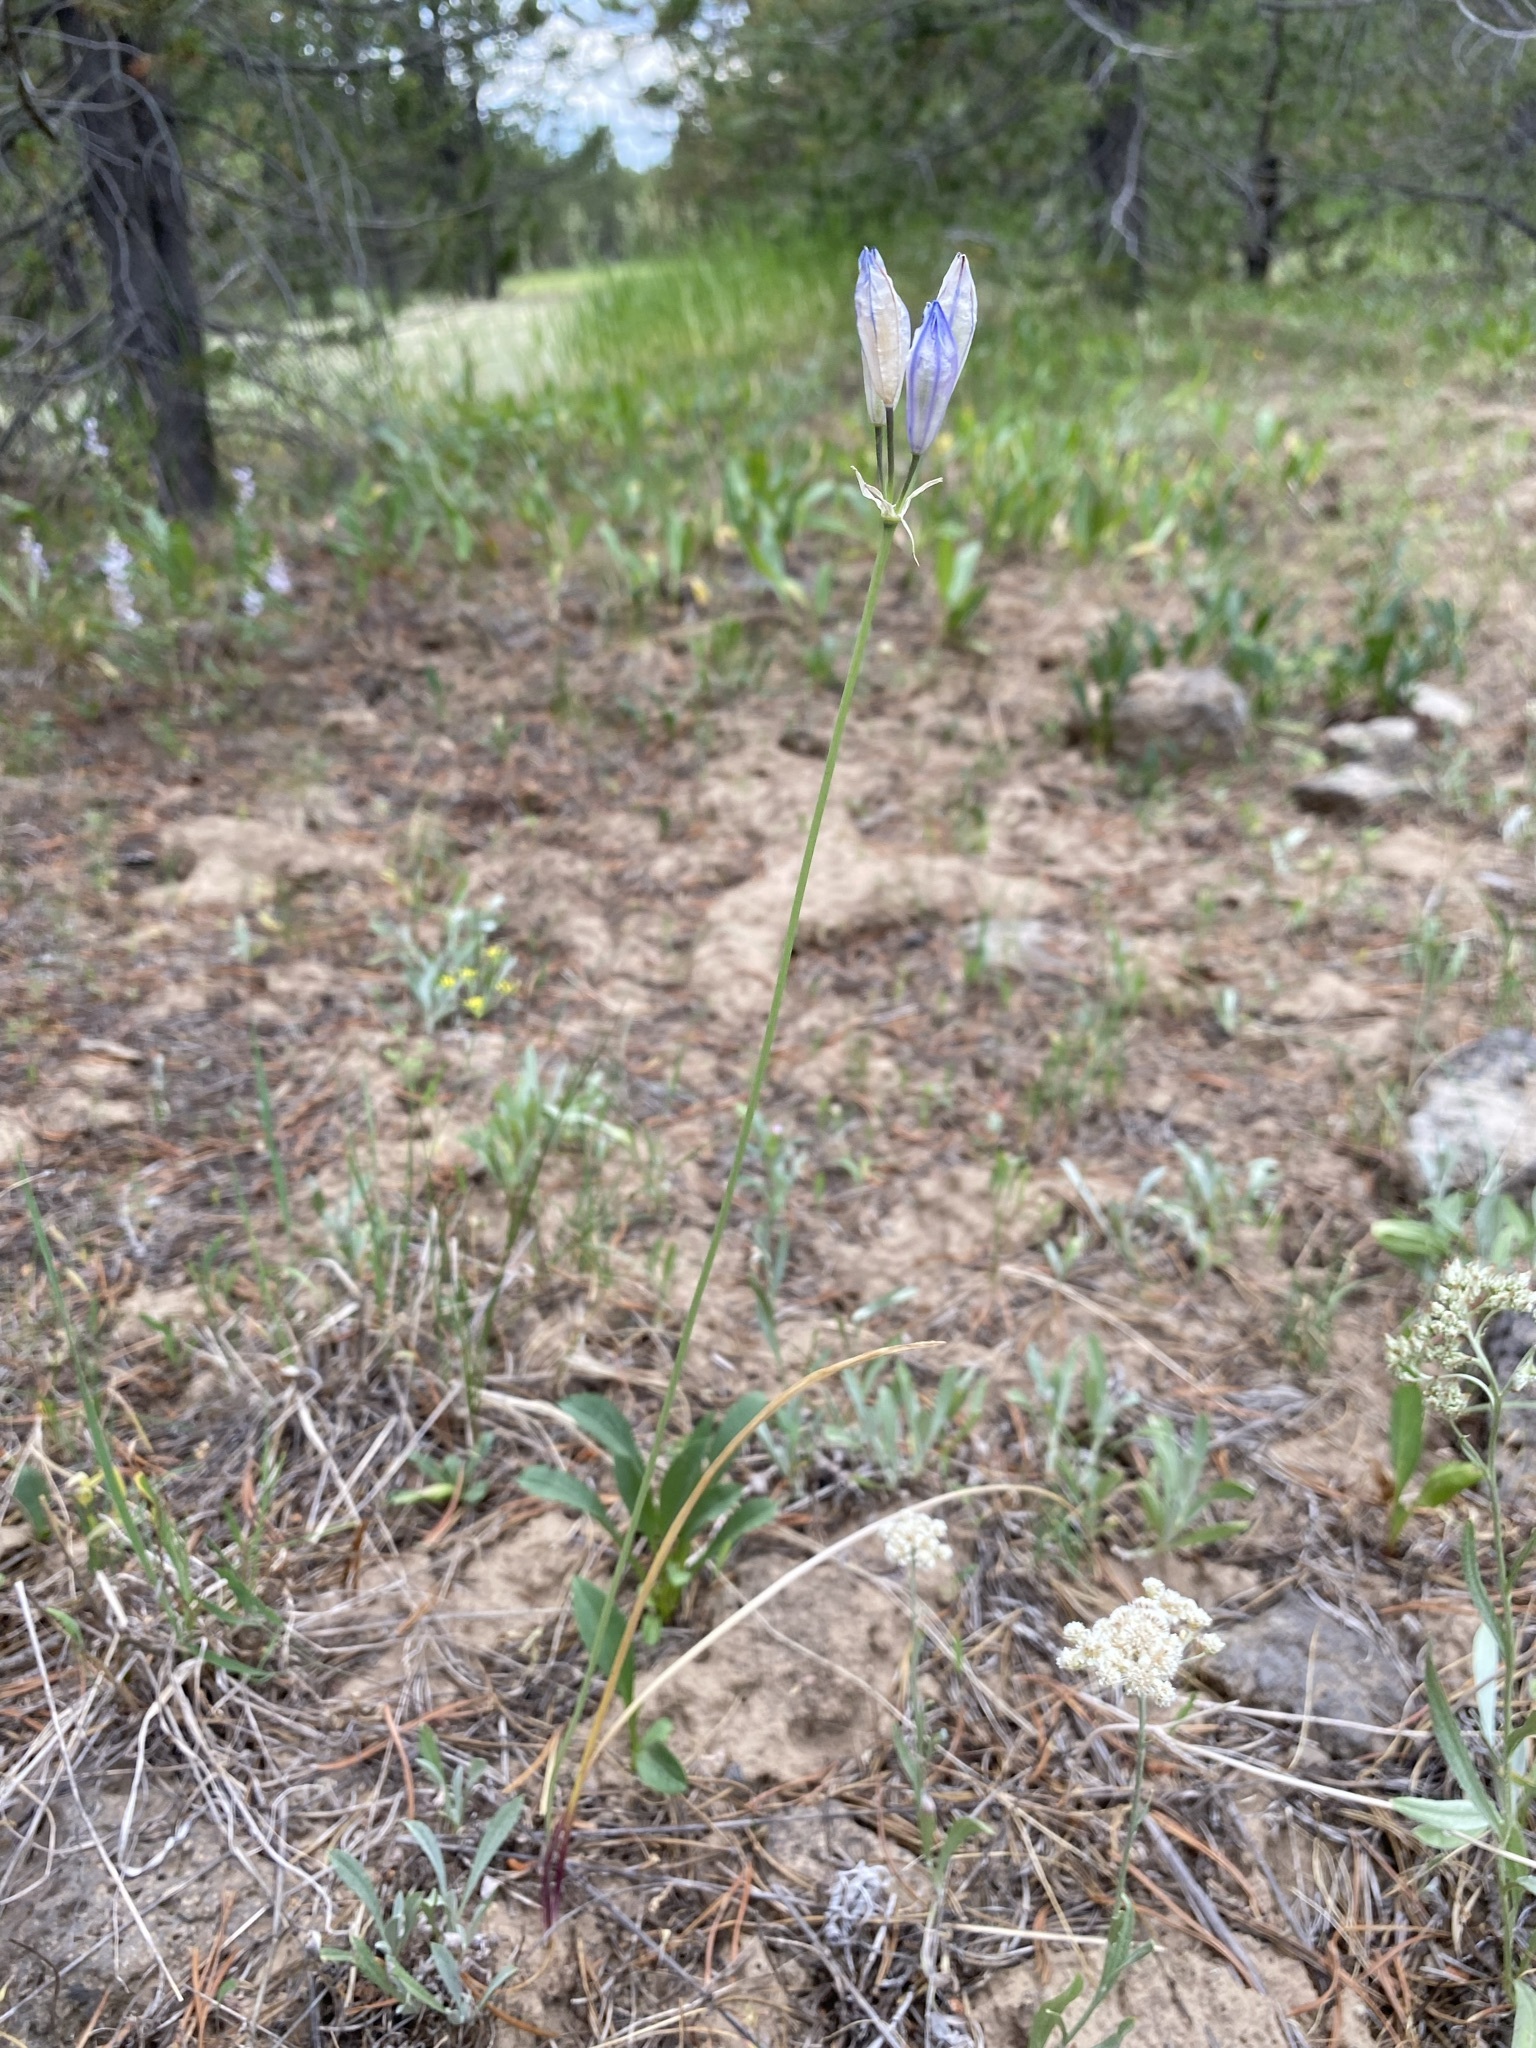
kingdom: Plantae
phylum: Tracheophyta
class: Liliopsida
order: Asparagales
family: Asparagaceae
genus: Triteleia
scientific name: Triteleia grandiflora
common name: Wild hyacinth
